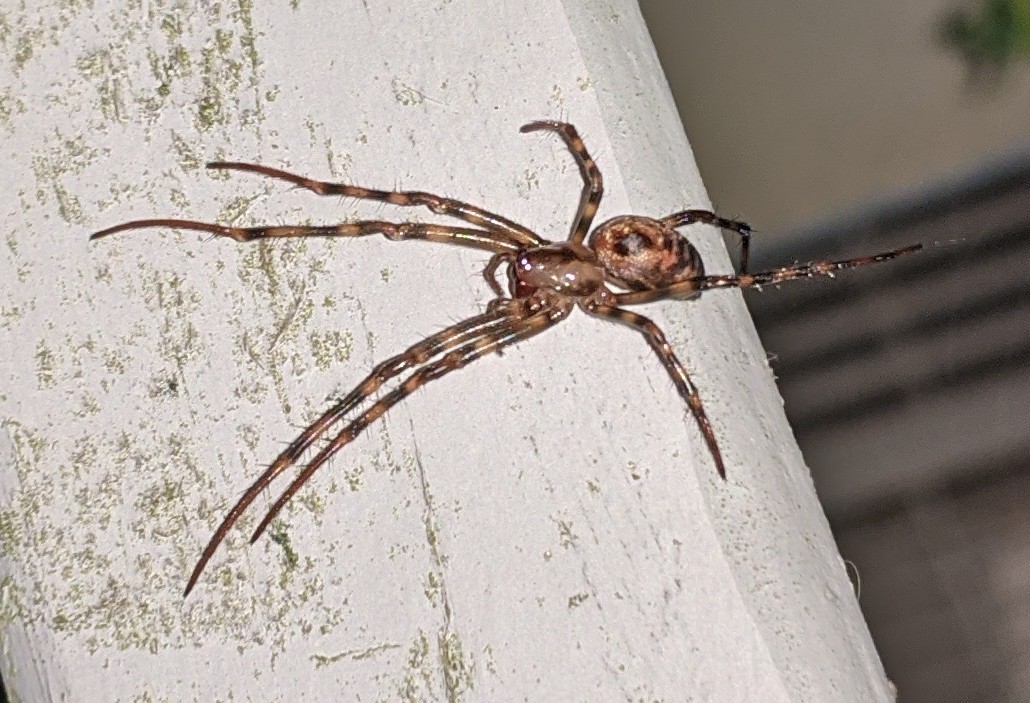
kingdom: Animalia
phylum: Arthropoda
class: Arachnida
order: Araneae
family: Tetragnathidae
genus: Meta
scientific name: Meta ovalis
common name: Eastern cave long-jawed spider
